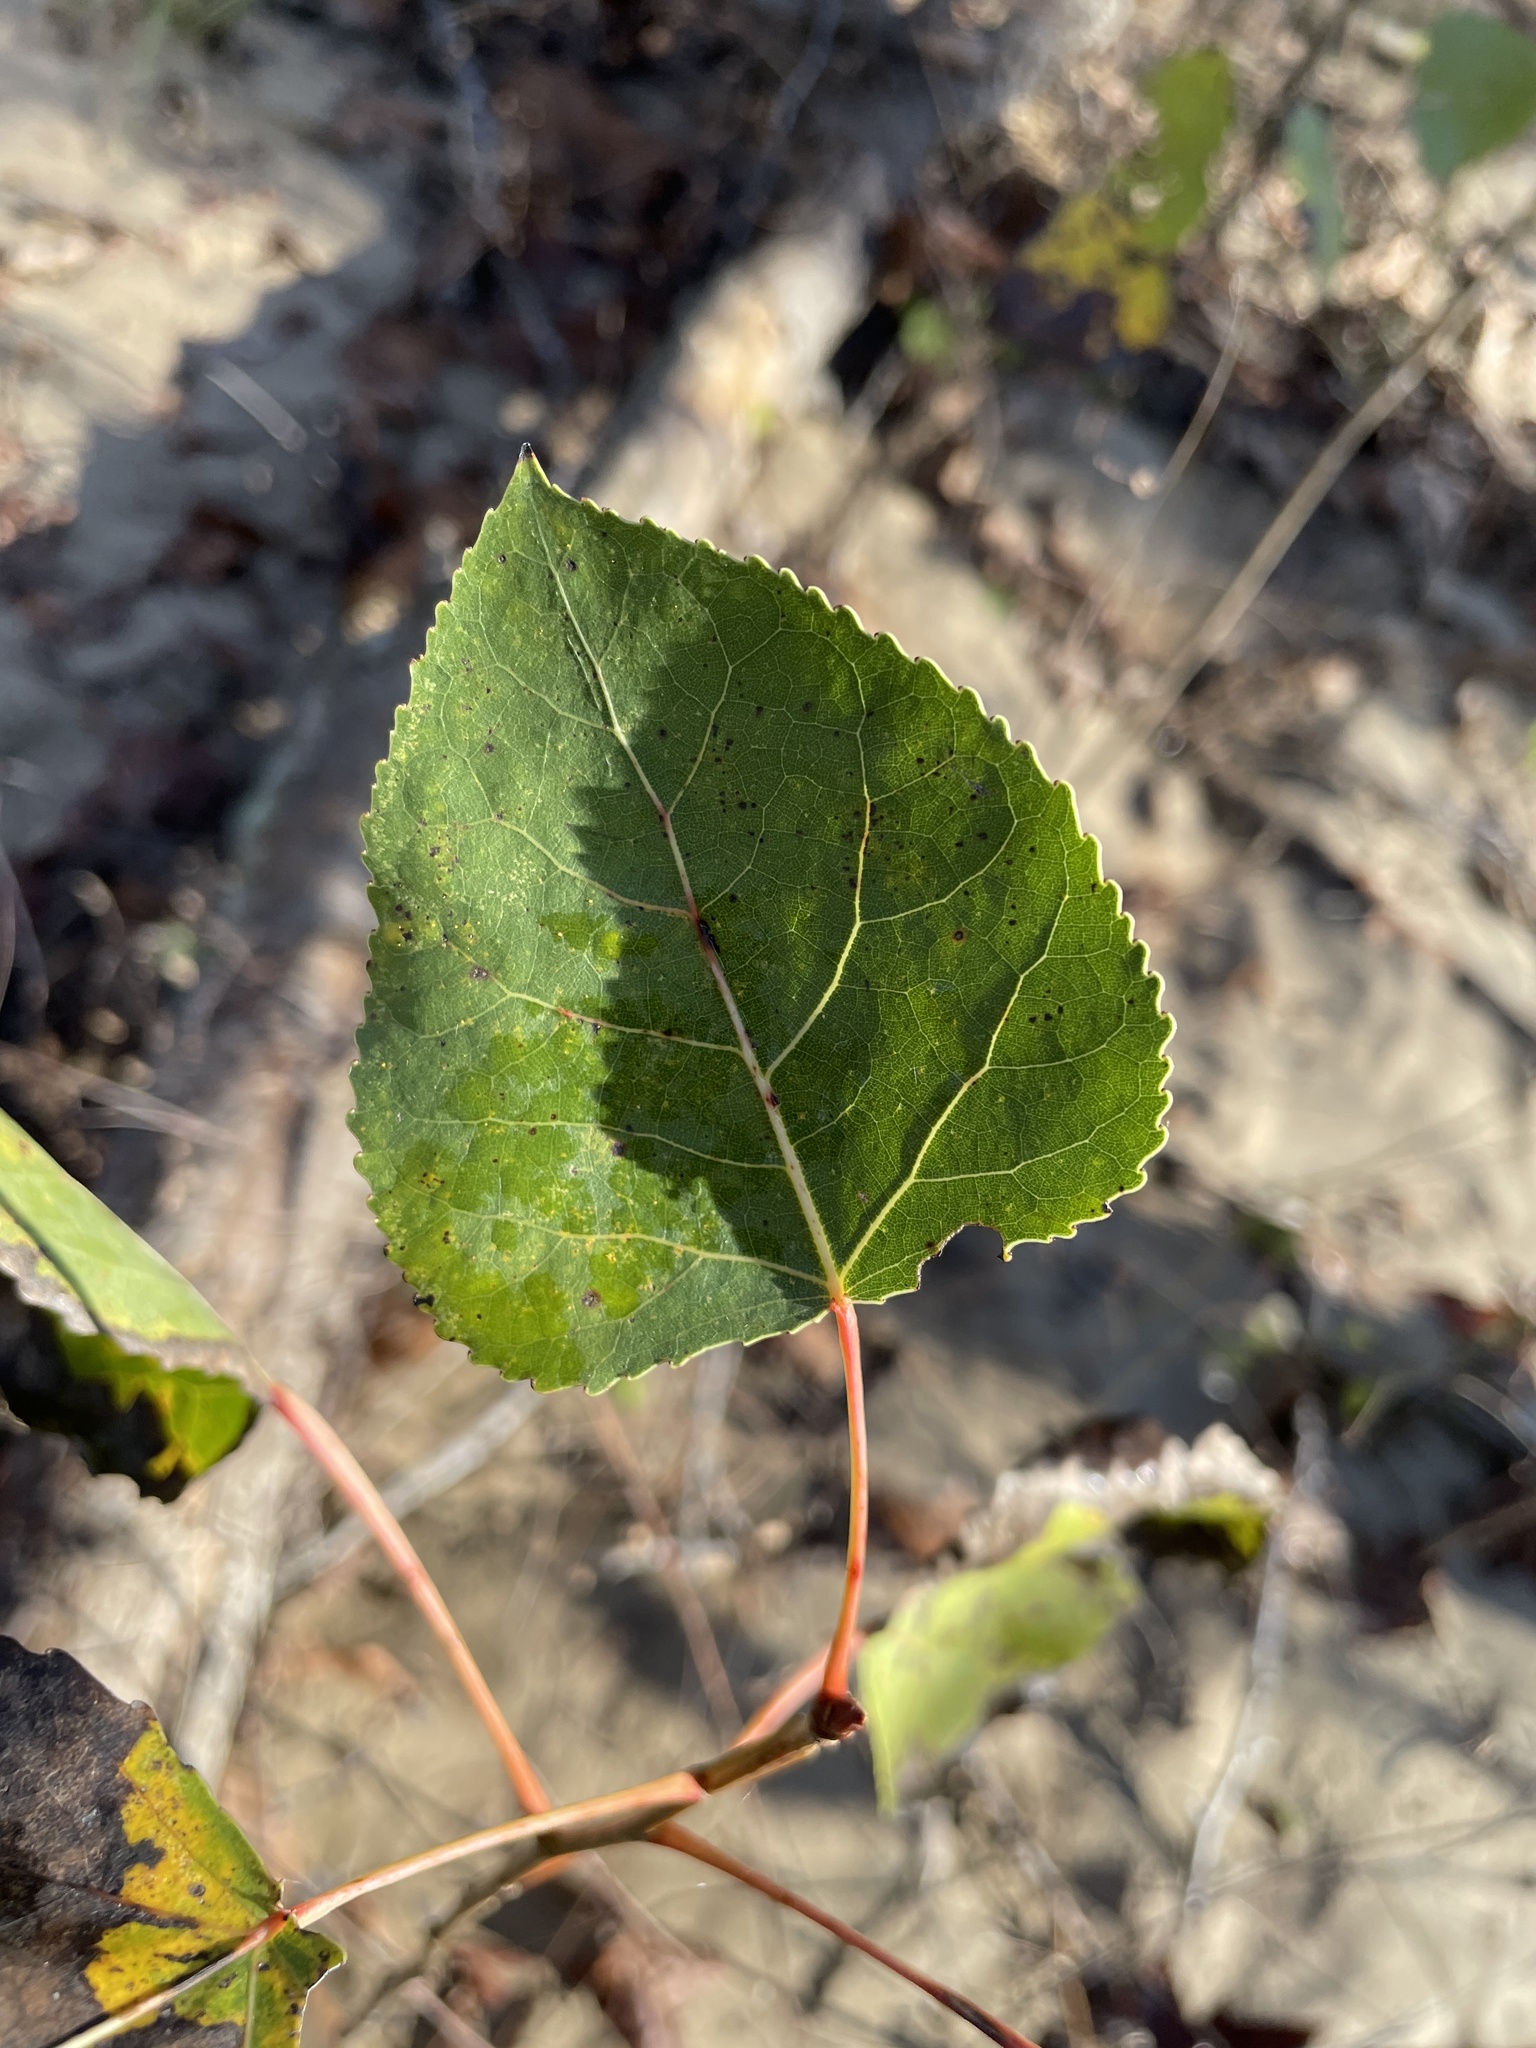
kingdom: Plantae
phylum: Tracheophyta
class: Magnoliopsida
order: Malpighiales
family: Salicaceae
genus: Populus
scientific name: Populus deltoides
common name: Eastern cottonwood
